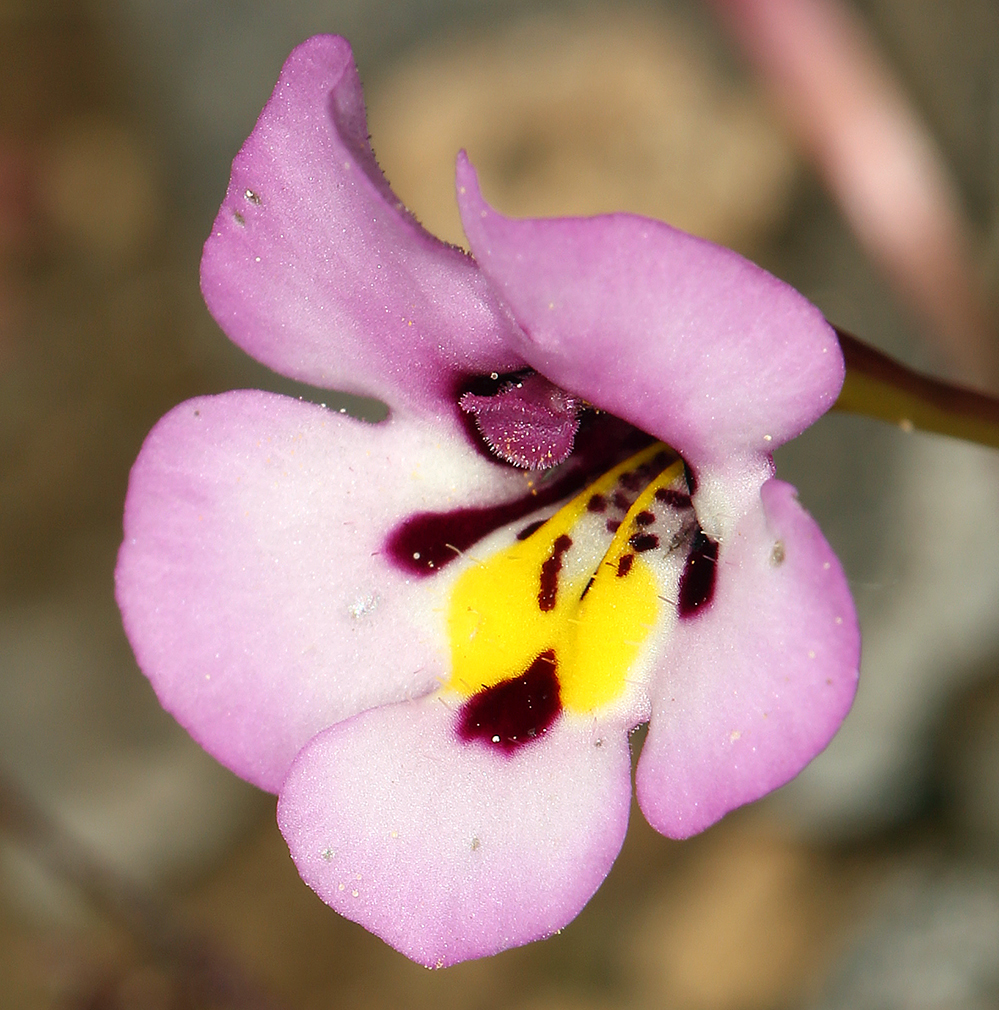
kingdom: Plantae
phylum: Tracheophyta
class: Magnoliopsida
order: Lamiales
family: Phrymaceae
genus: Diplacus
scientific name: Diplacus angustatus
